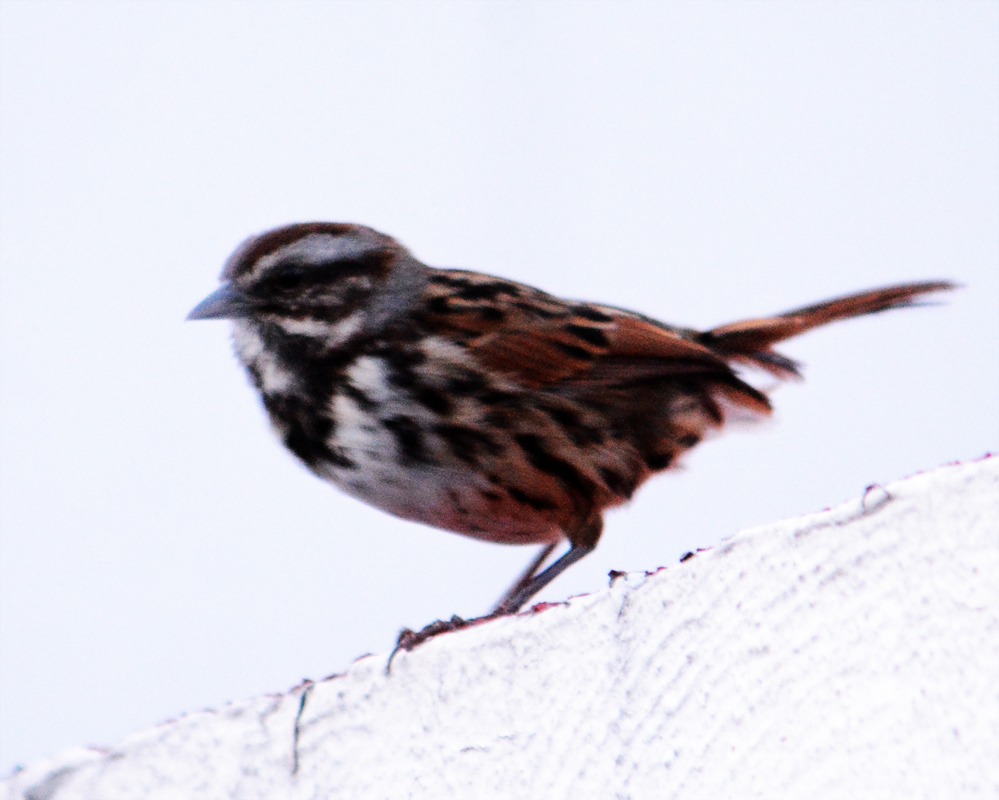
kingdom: Animalia
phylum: Chordata
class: Aves
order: Passeriformes
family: Passerellidae
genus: Melospiza
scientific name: Melospiza melodia
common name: Song sparrow
